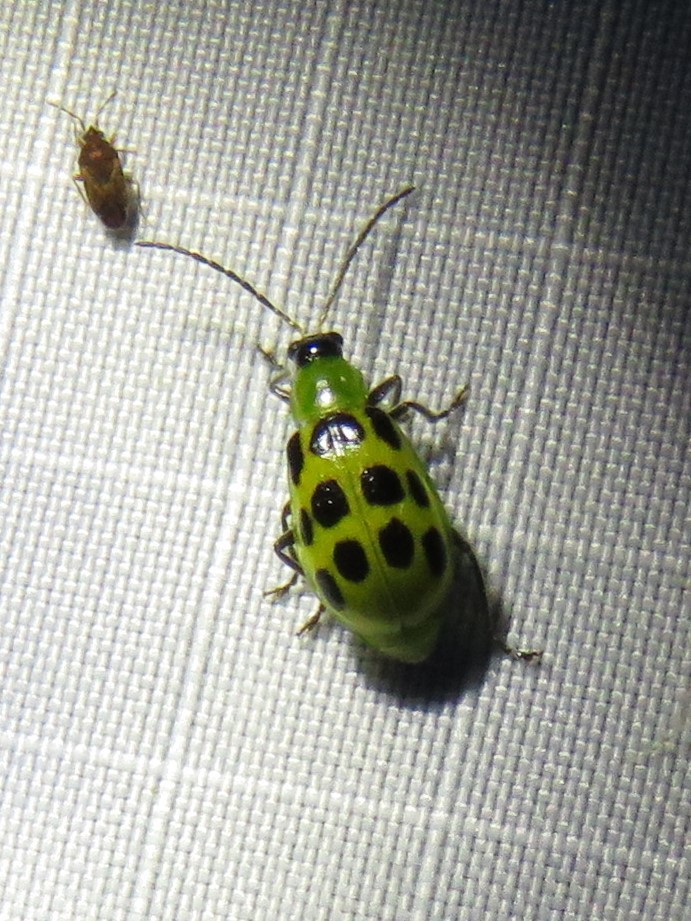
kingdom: Animalia
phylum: Arthropoda
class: Insecta
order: Coleoptera
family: Chrysomelidae
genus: Diabrotica
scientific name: Diabrotica undecimpunctata
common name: Spotted cucumber beetle
